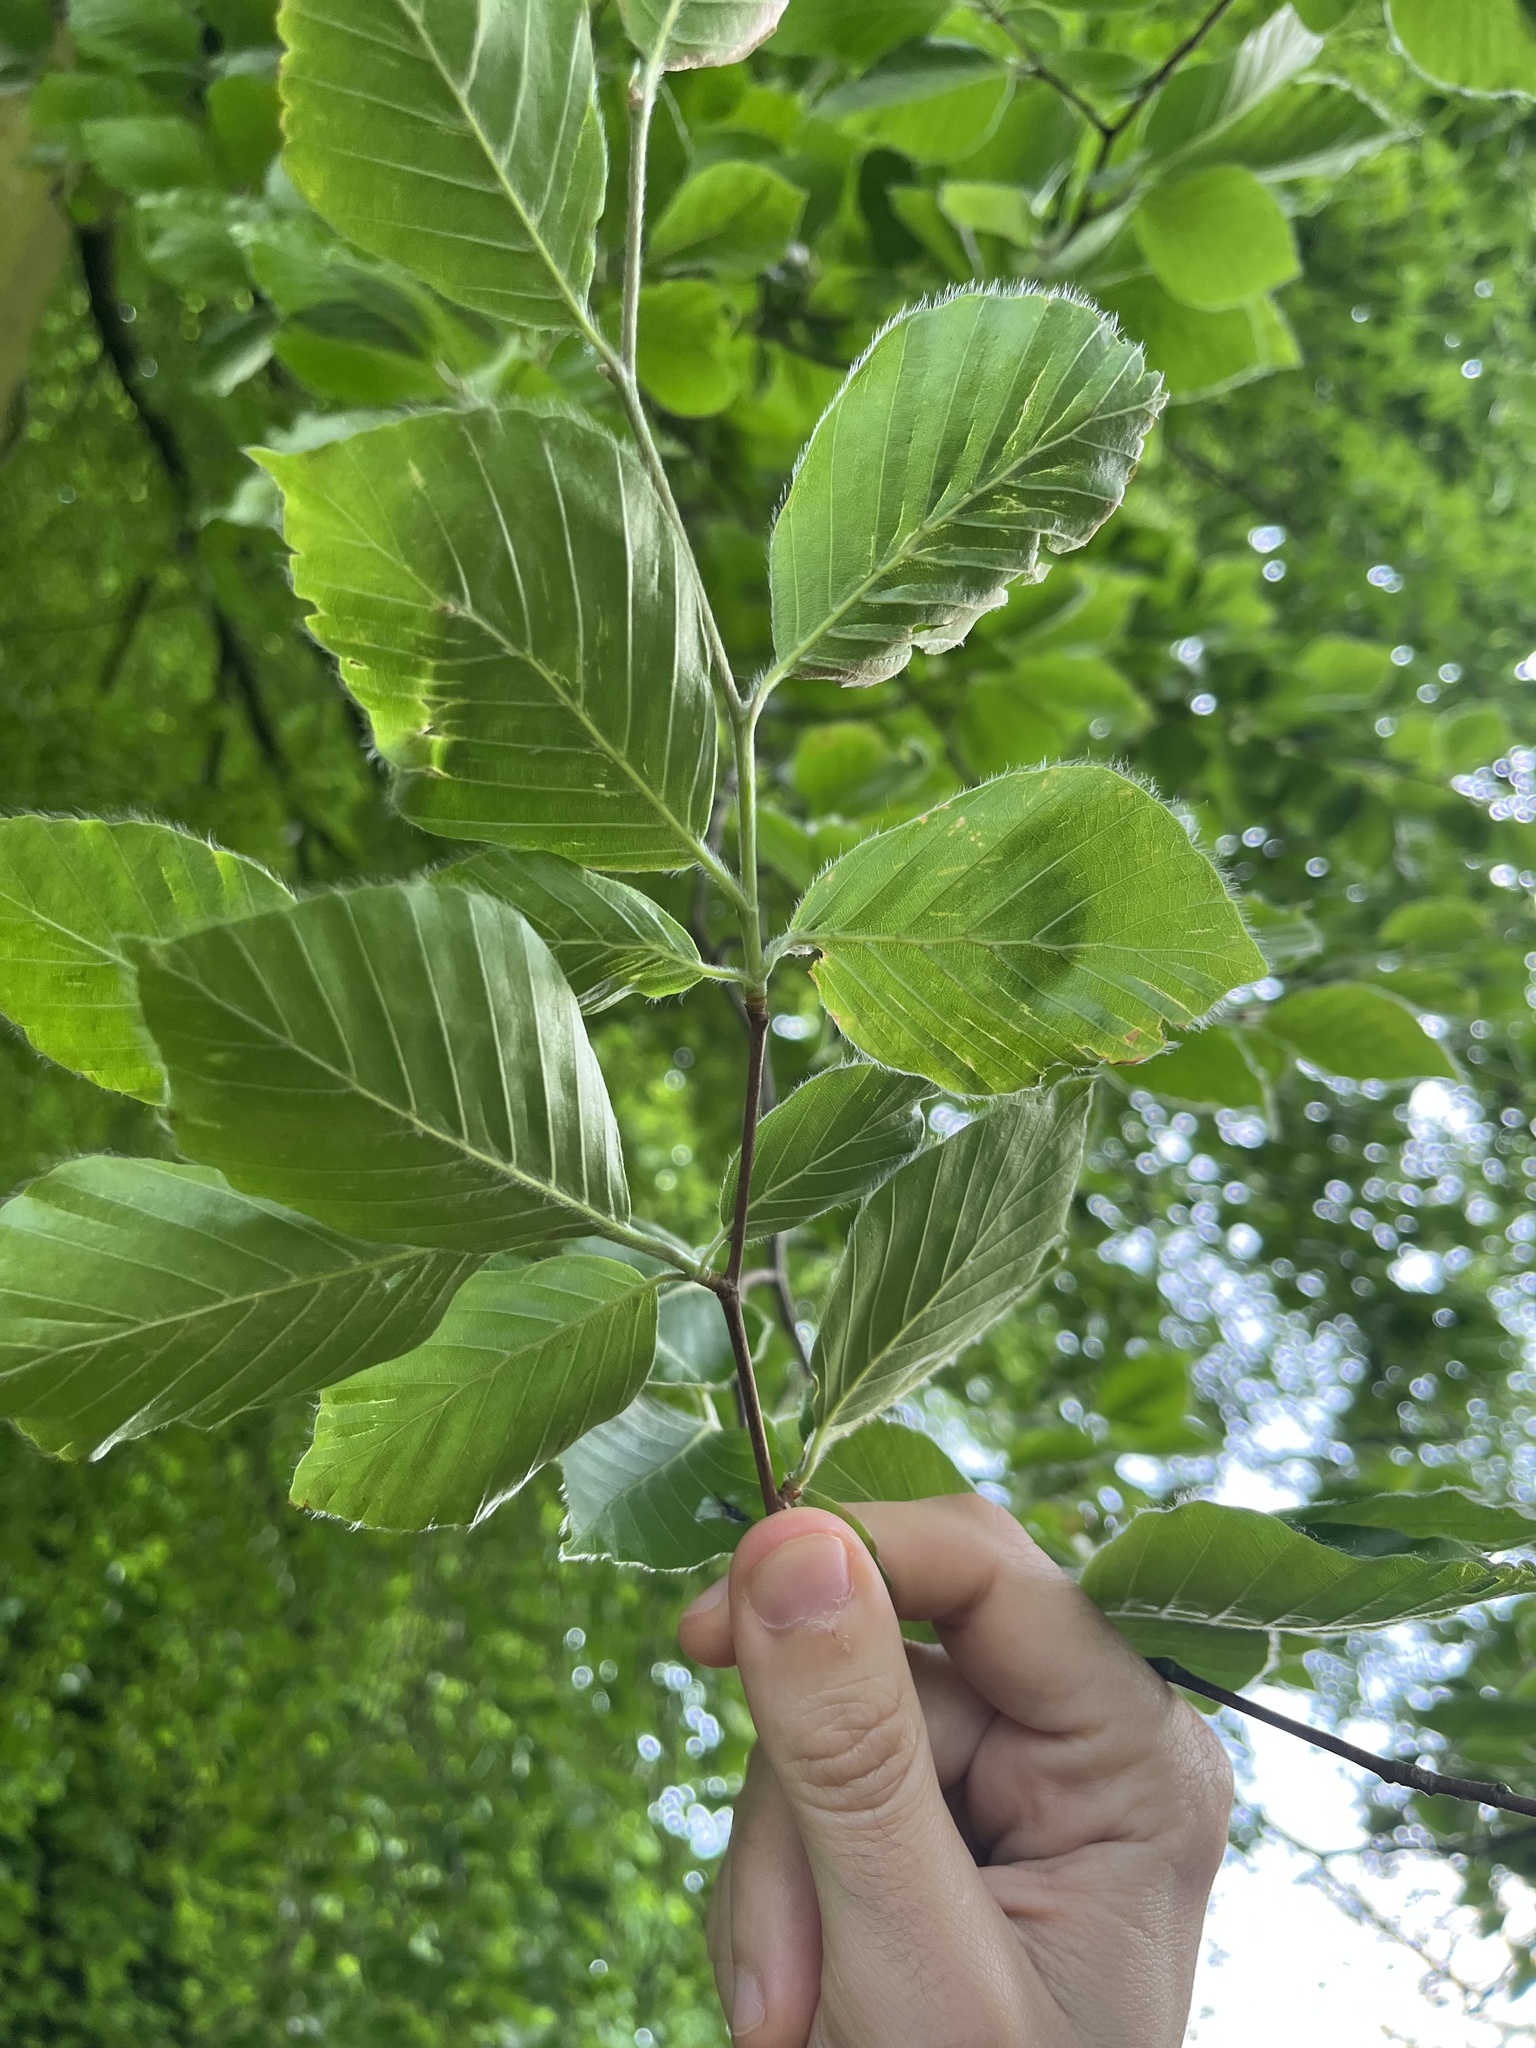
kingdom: Plantae
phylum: Tracheophyta
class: Magnoliopsida
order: Fagales
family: Fagaceae
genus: Fagus
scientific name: Fagus sylvatica
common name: Beech
